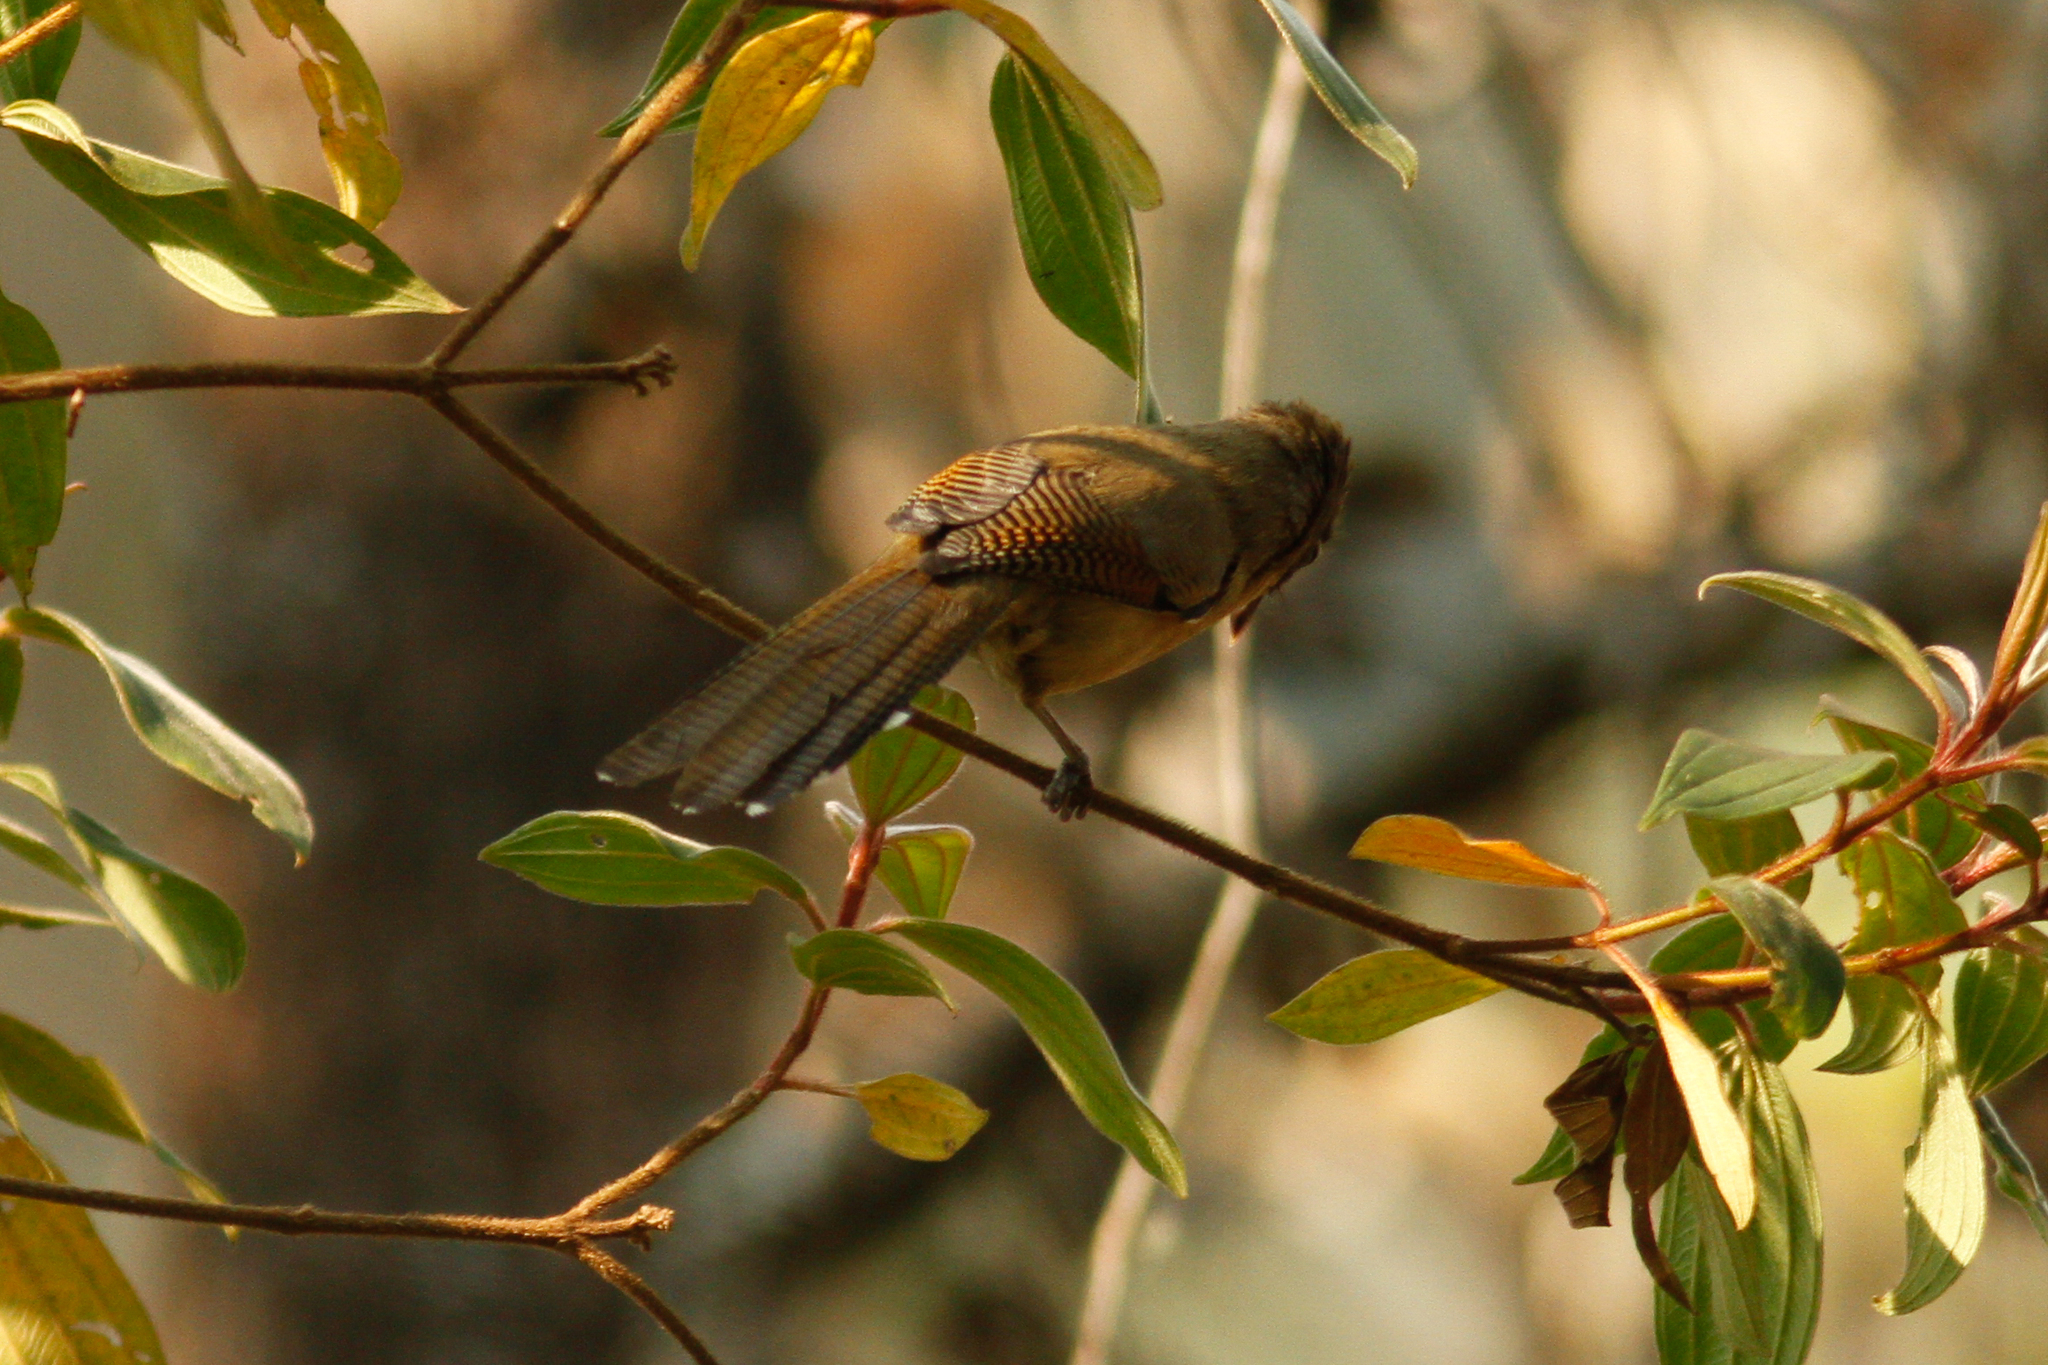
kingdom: Animalia
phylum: Chordata
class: Aves
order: Passeriformes
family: Leiothrichidae
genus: Actinodura
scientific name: Actinodura ramsayi
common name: Spectacled barwing
